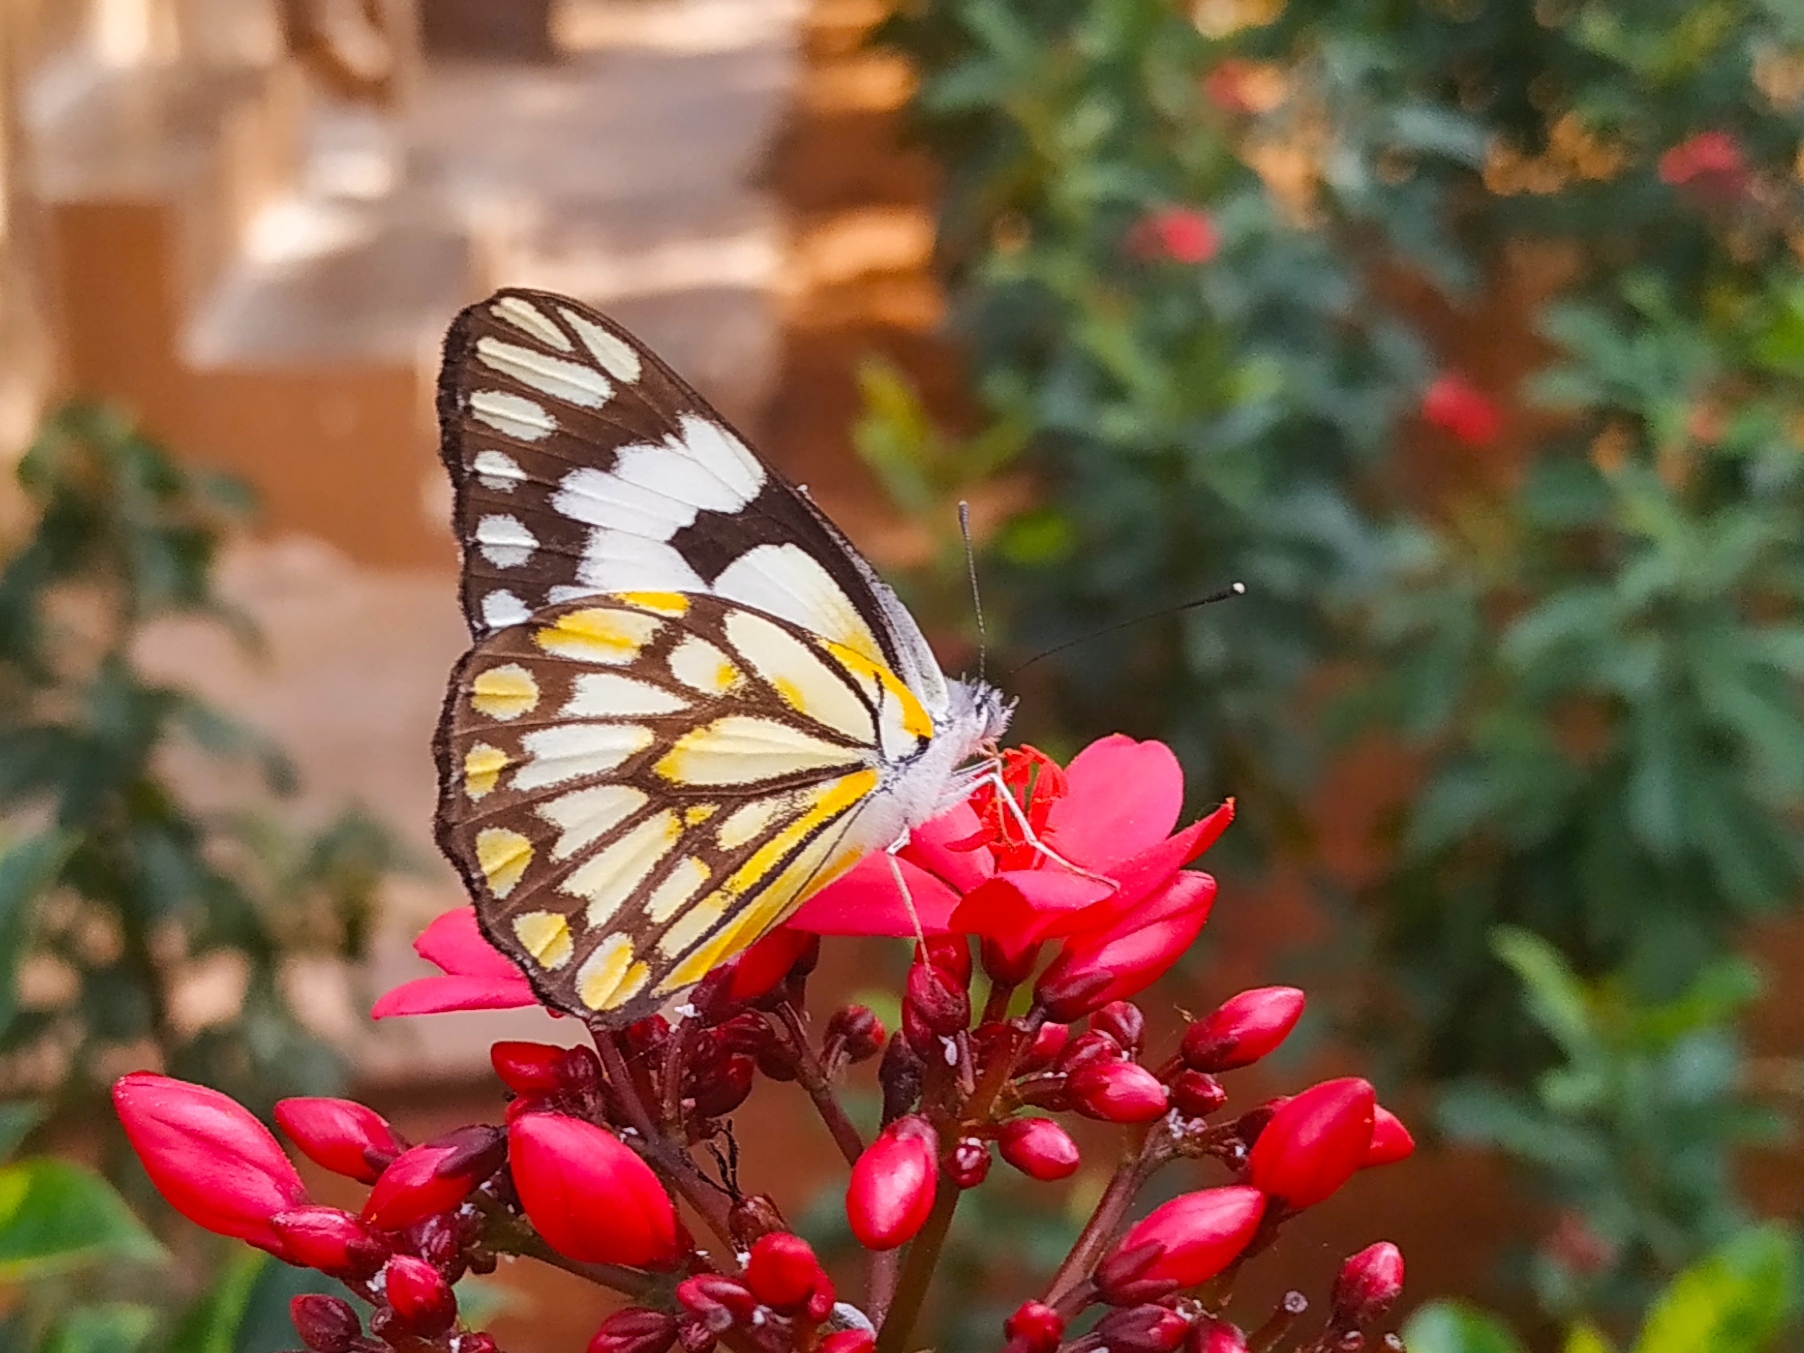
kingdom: Animalia
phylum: Arthropoda
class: Insecta
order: Lepidoptera
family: Pieridae
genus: Belenois
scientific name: Belenois aurota
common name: Brown-veined white
